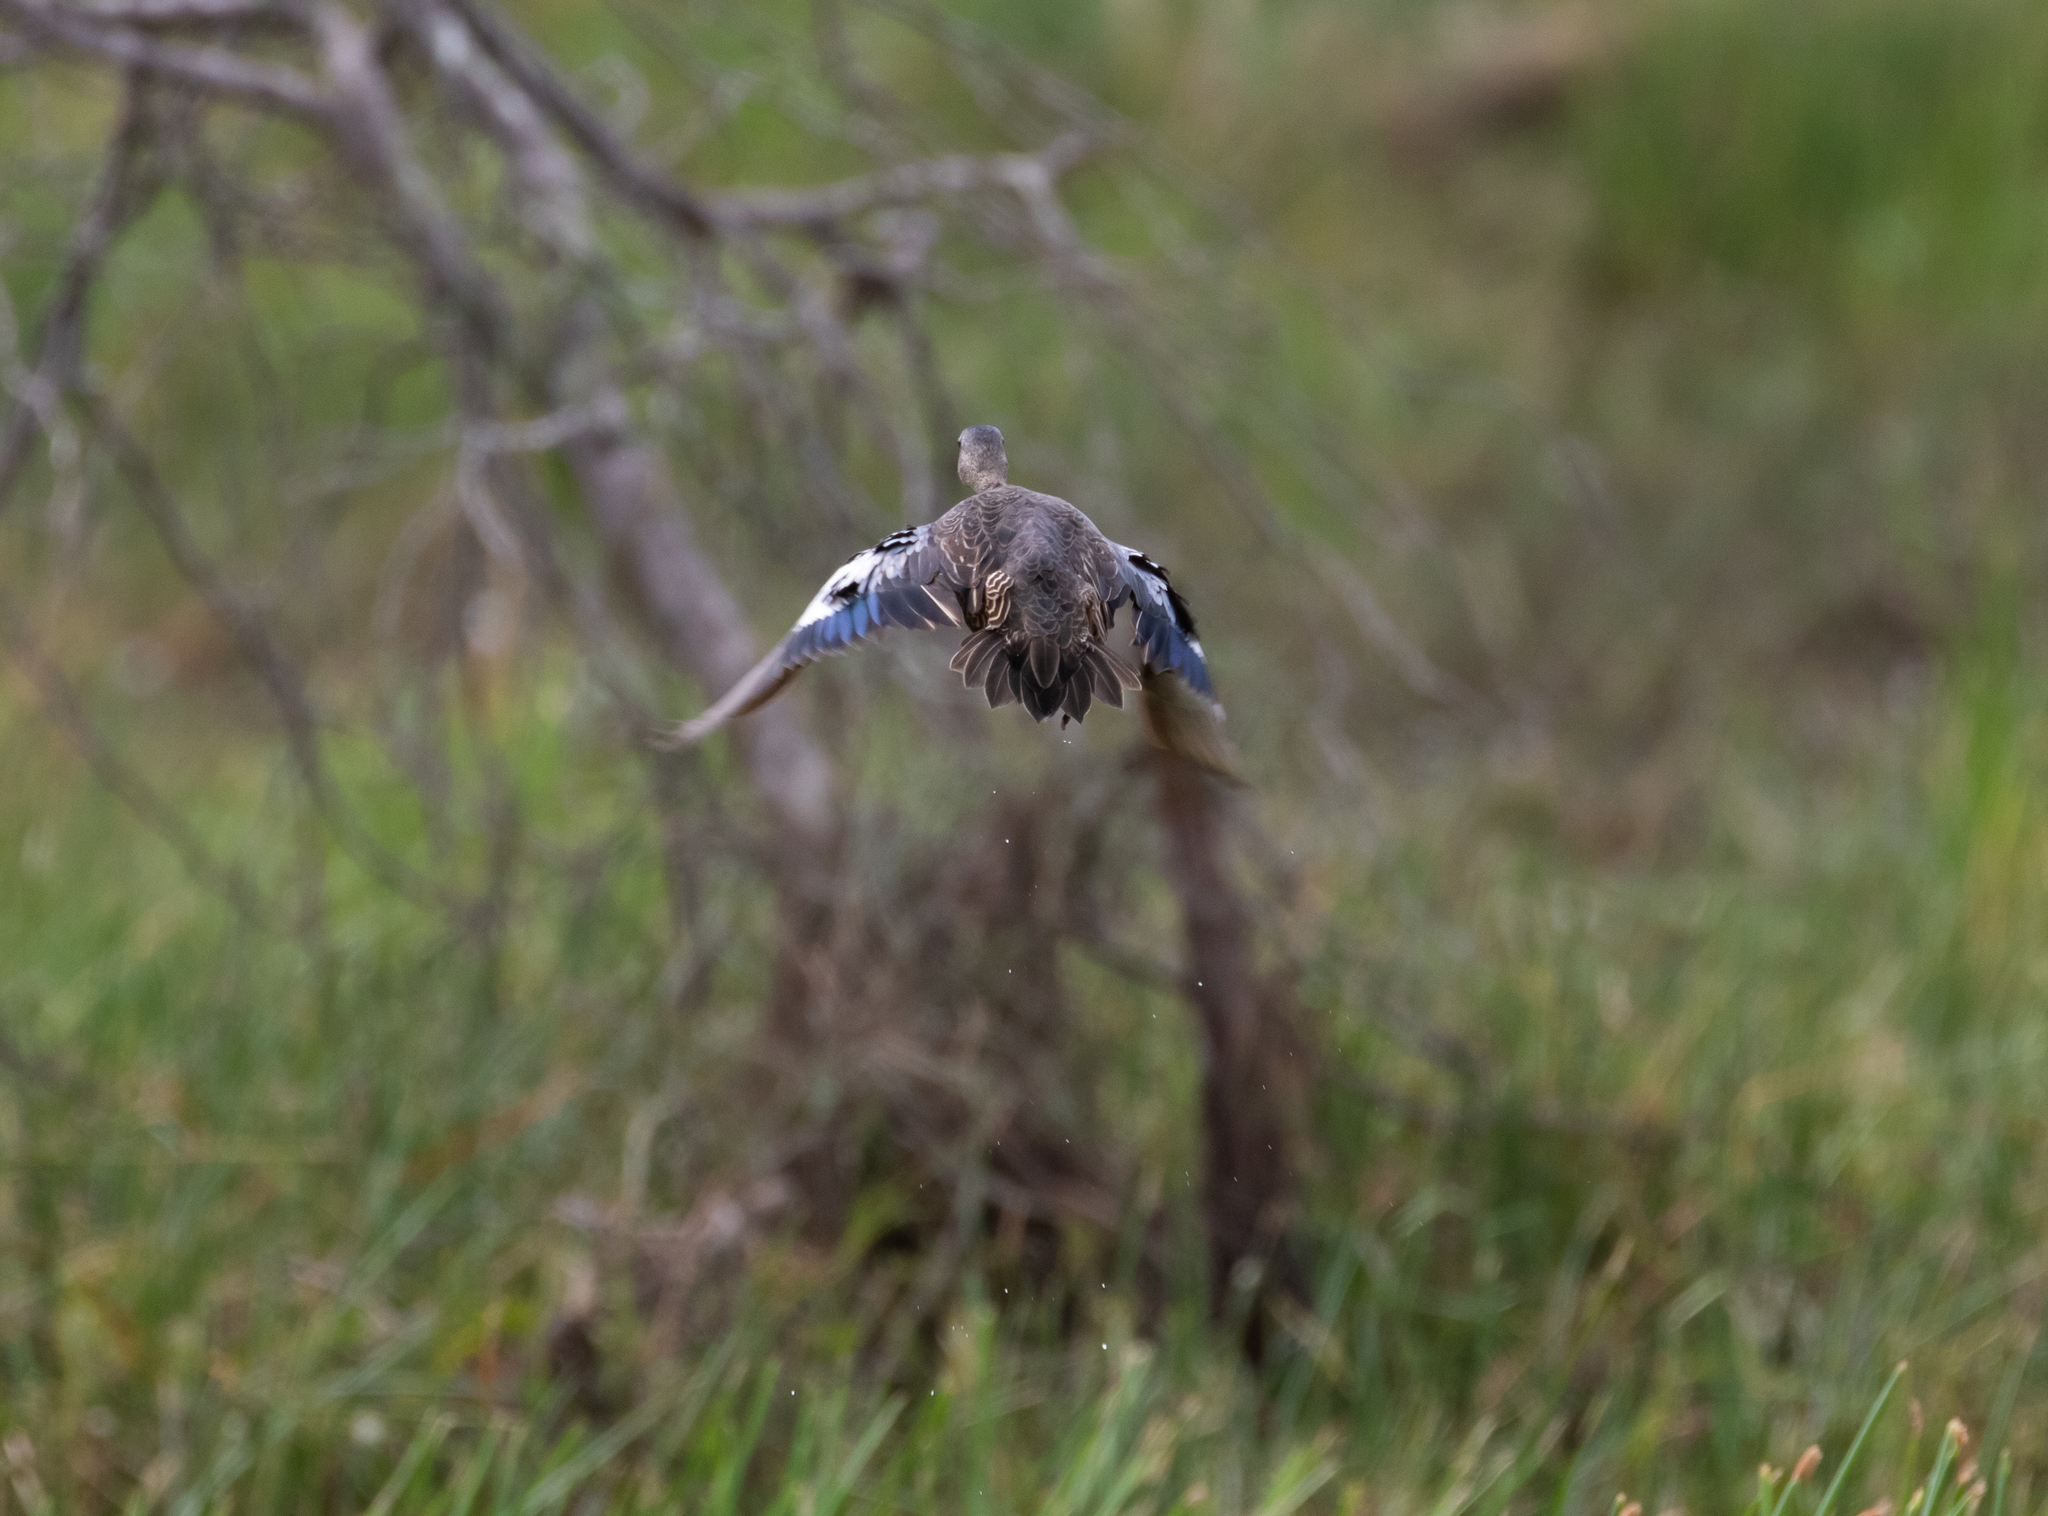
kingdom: Animalia
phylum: Chordata
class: Aves
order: Anseriformes
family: Anatidae
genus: Spatula
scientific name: Spatula discors
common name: Blue-winged teal
